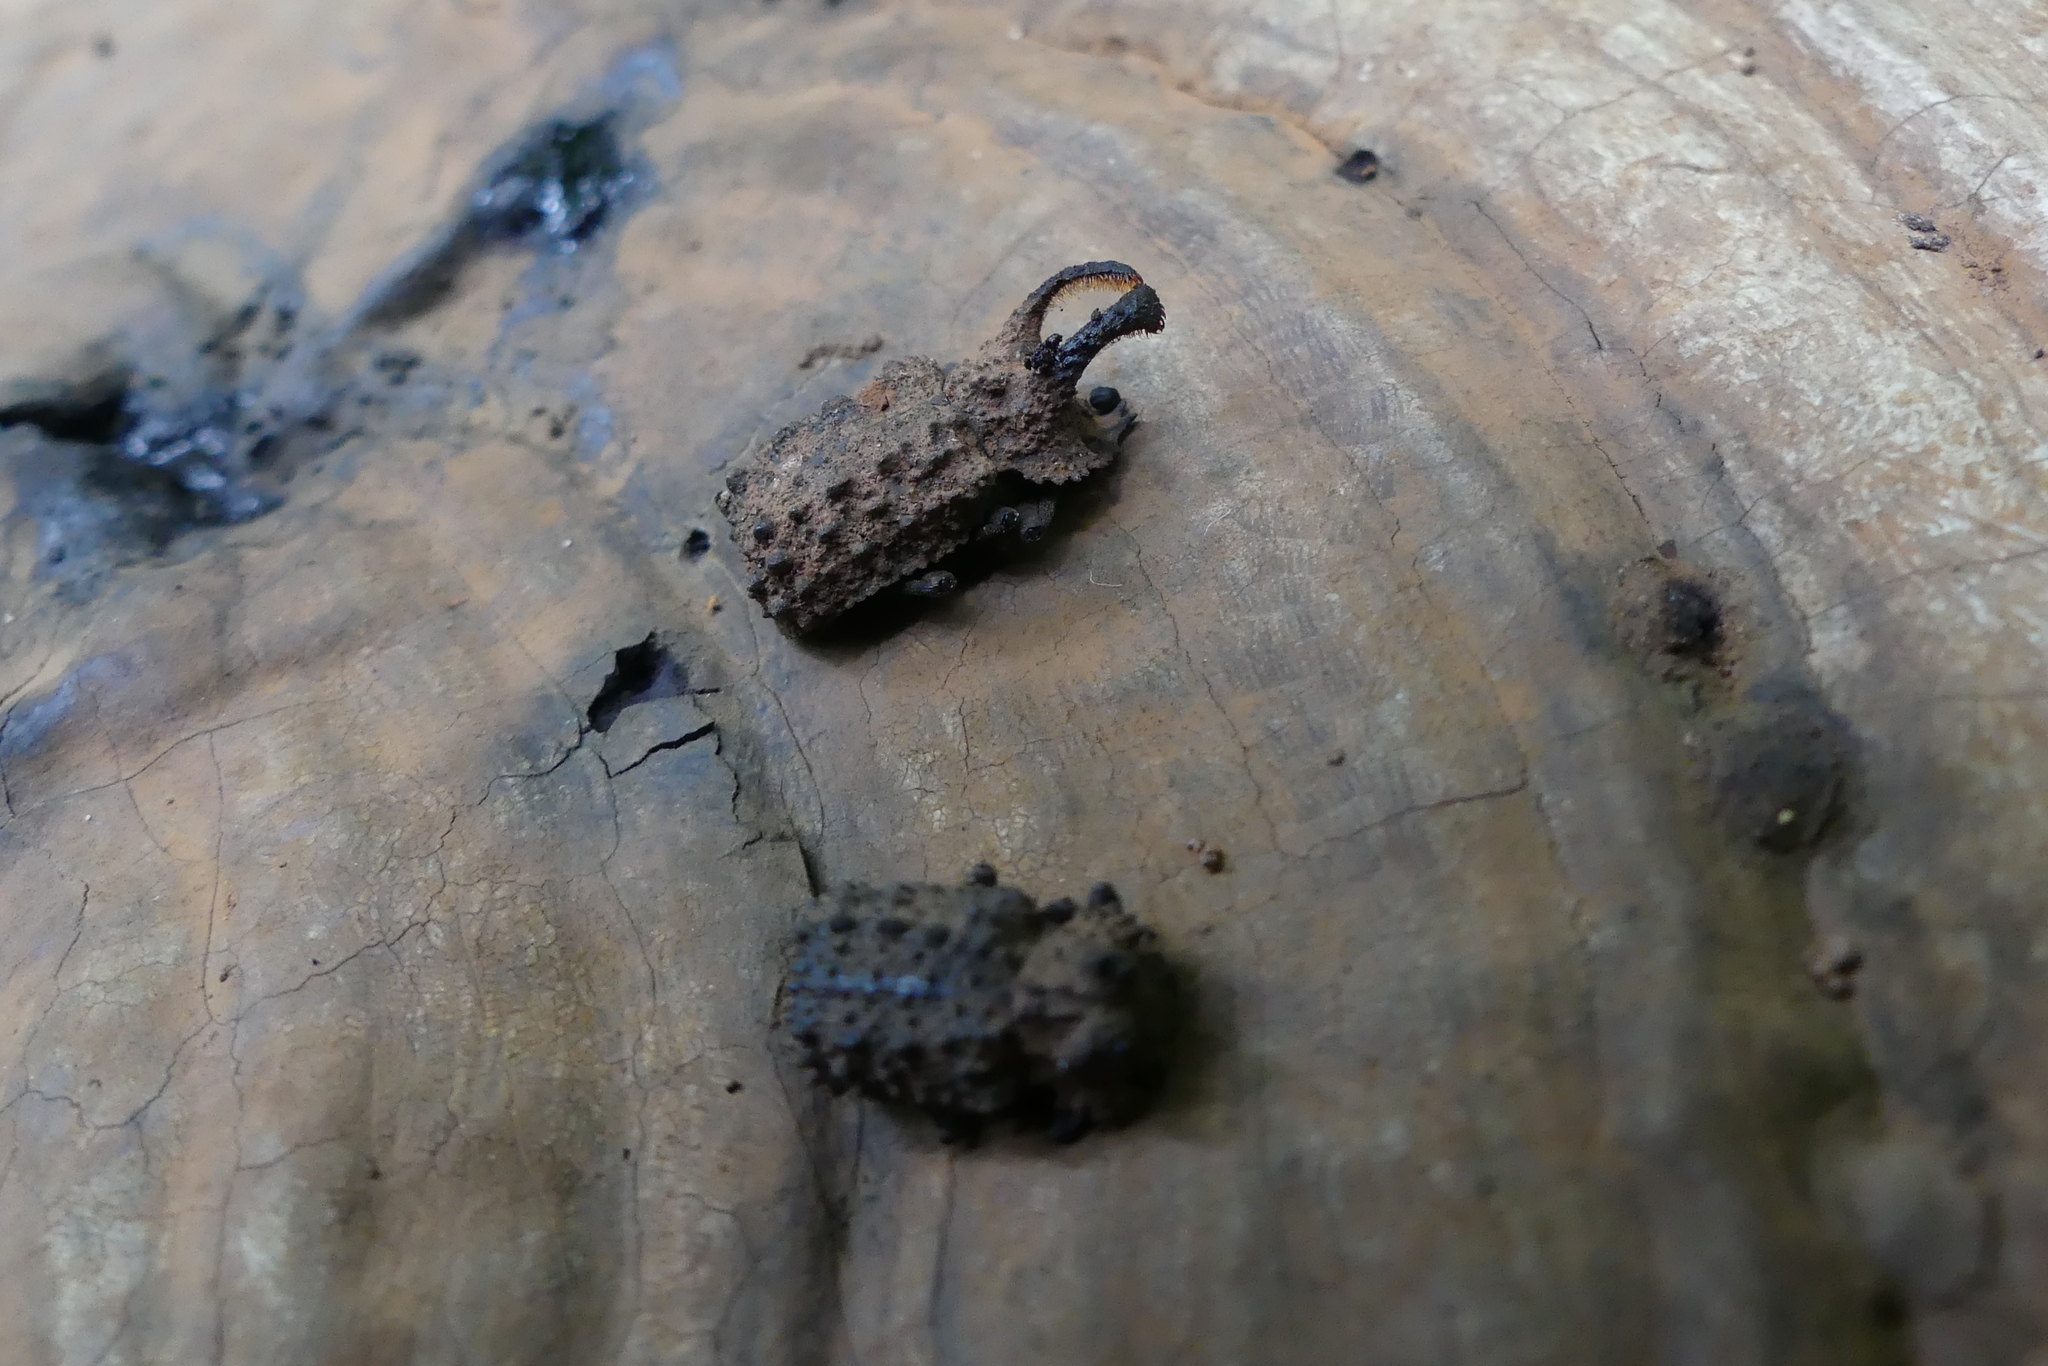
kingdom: Animalia
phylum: Arthropoda
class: Insecta
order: Coleoptera
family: Tenebrionidae
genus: Gnatocerus
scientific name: Gnatocerus cornutus
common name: Broad-horned flour beetle
